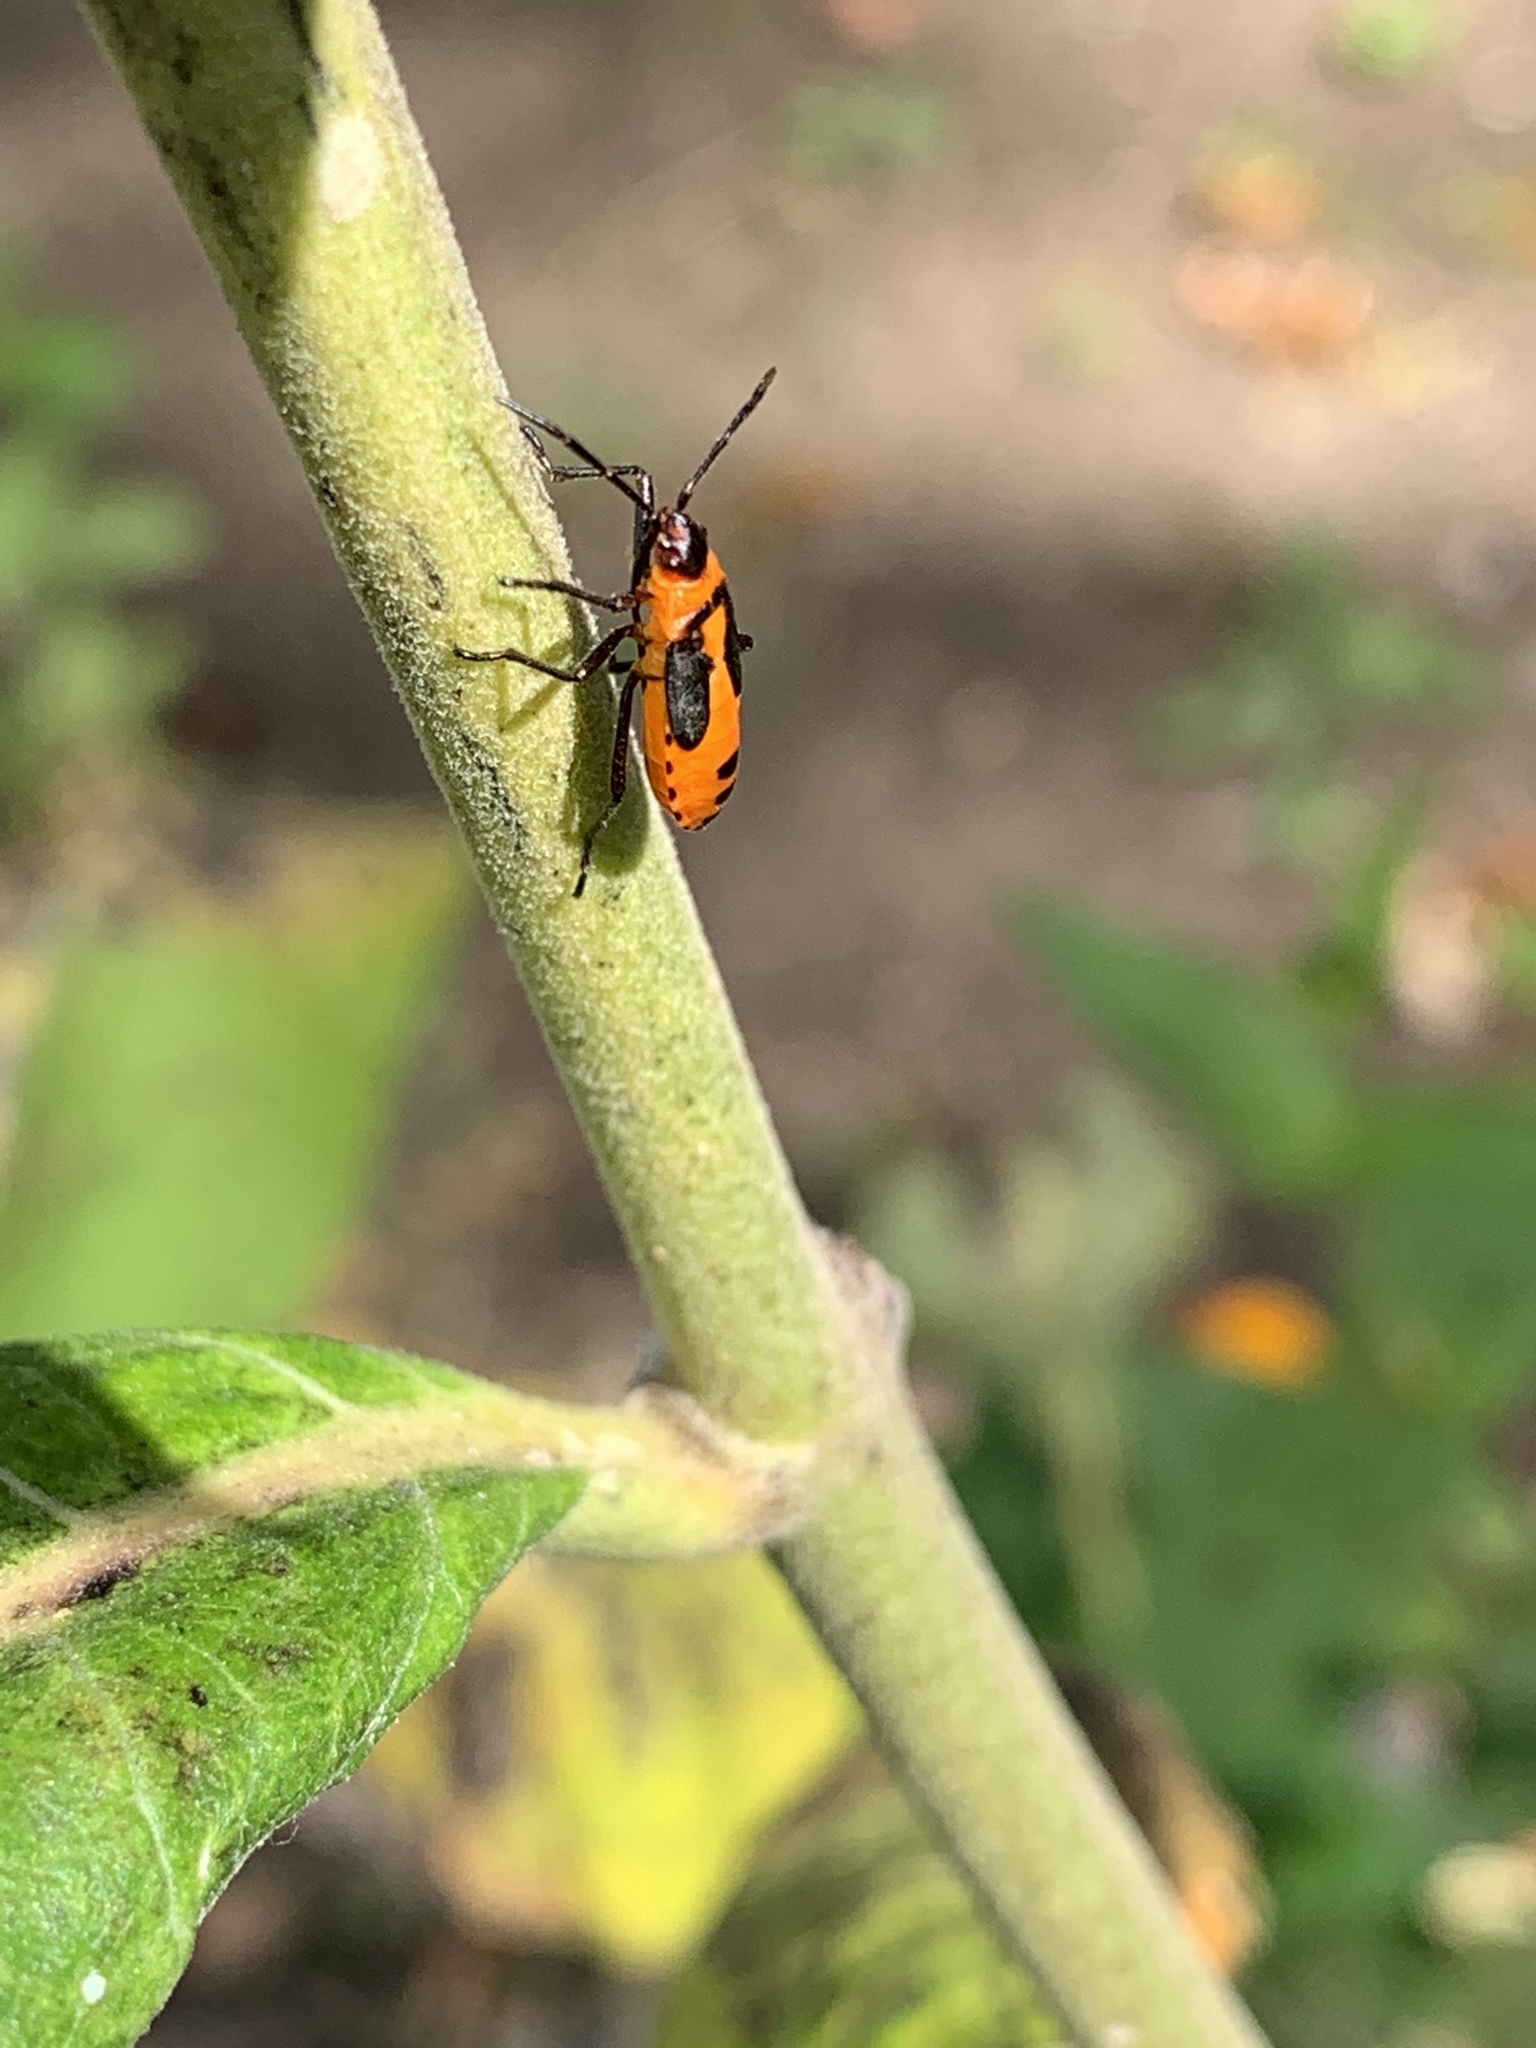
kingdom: Animalia
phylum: Arthropoda
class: Insecta
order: Hemiptera
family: Lygaeidae
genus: Oncopeltus
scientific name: Oncopeltus fasciatus
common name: Large milkweed bug
